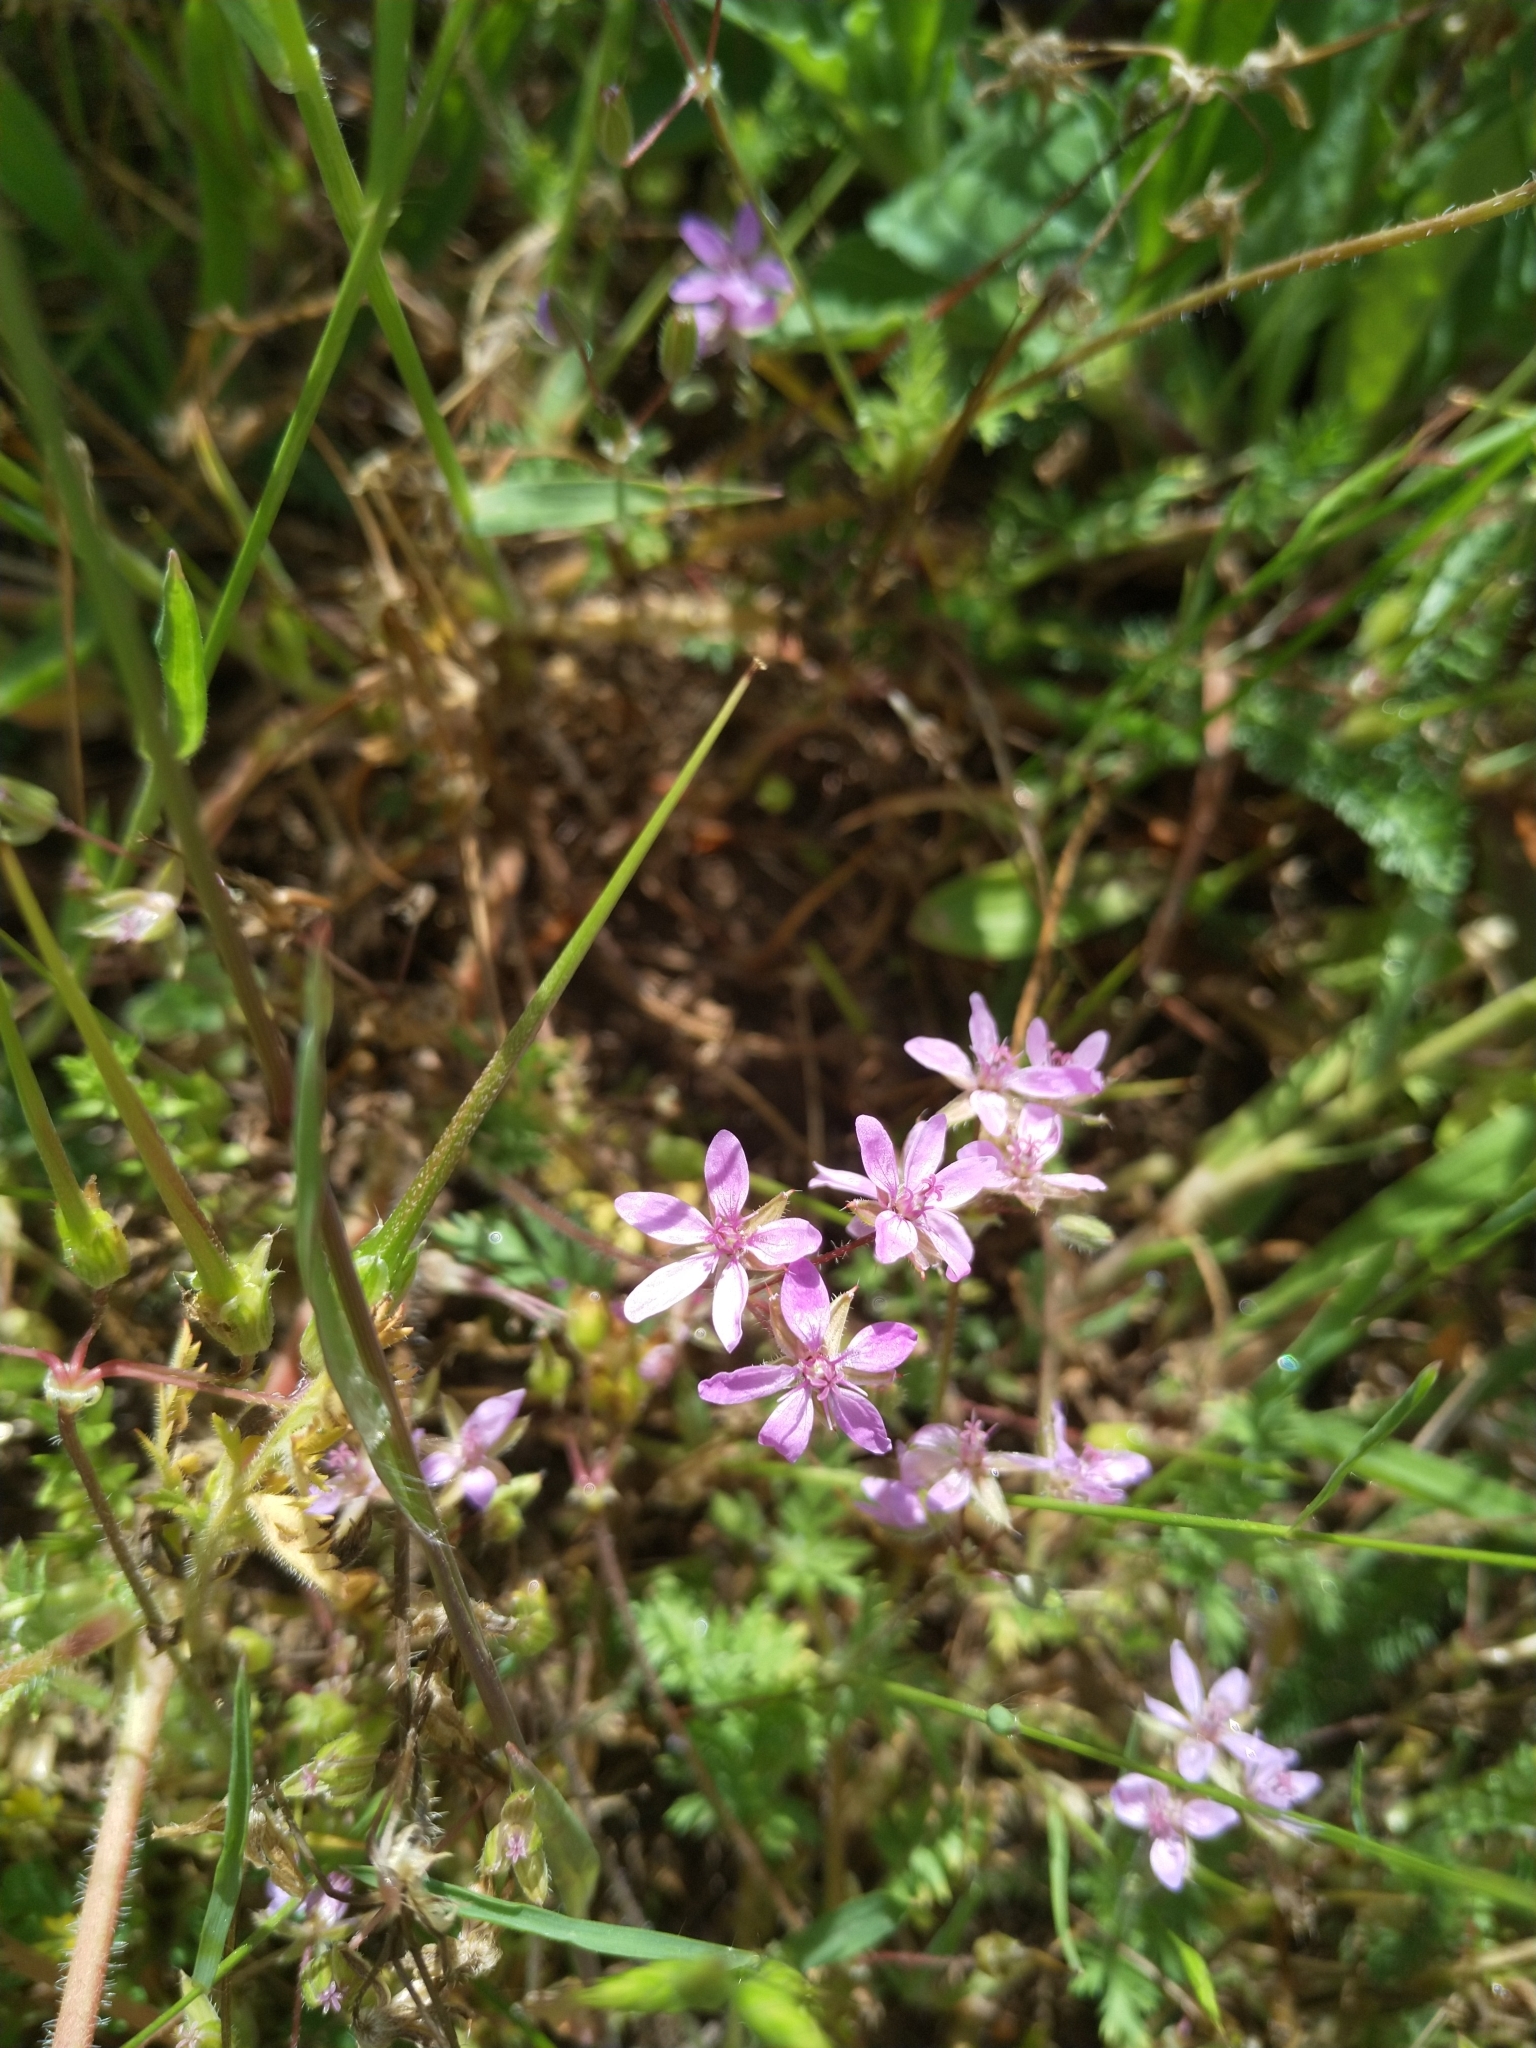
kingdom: Plantae
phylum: Tracheophyta
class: Magnoliopsida
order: Geraniales
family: Geraniaceae
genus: Erodium
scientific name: Erodium cicutarium
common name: Common stork's-bill
